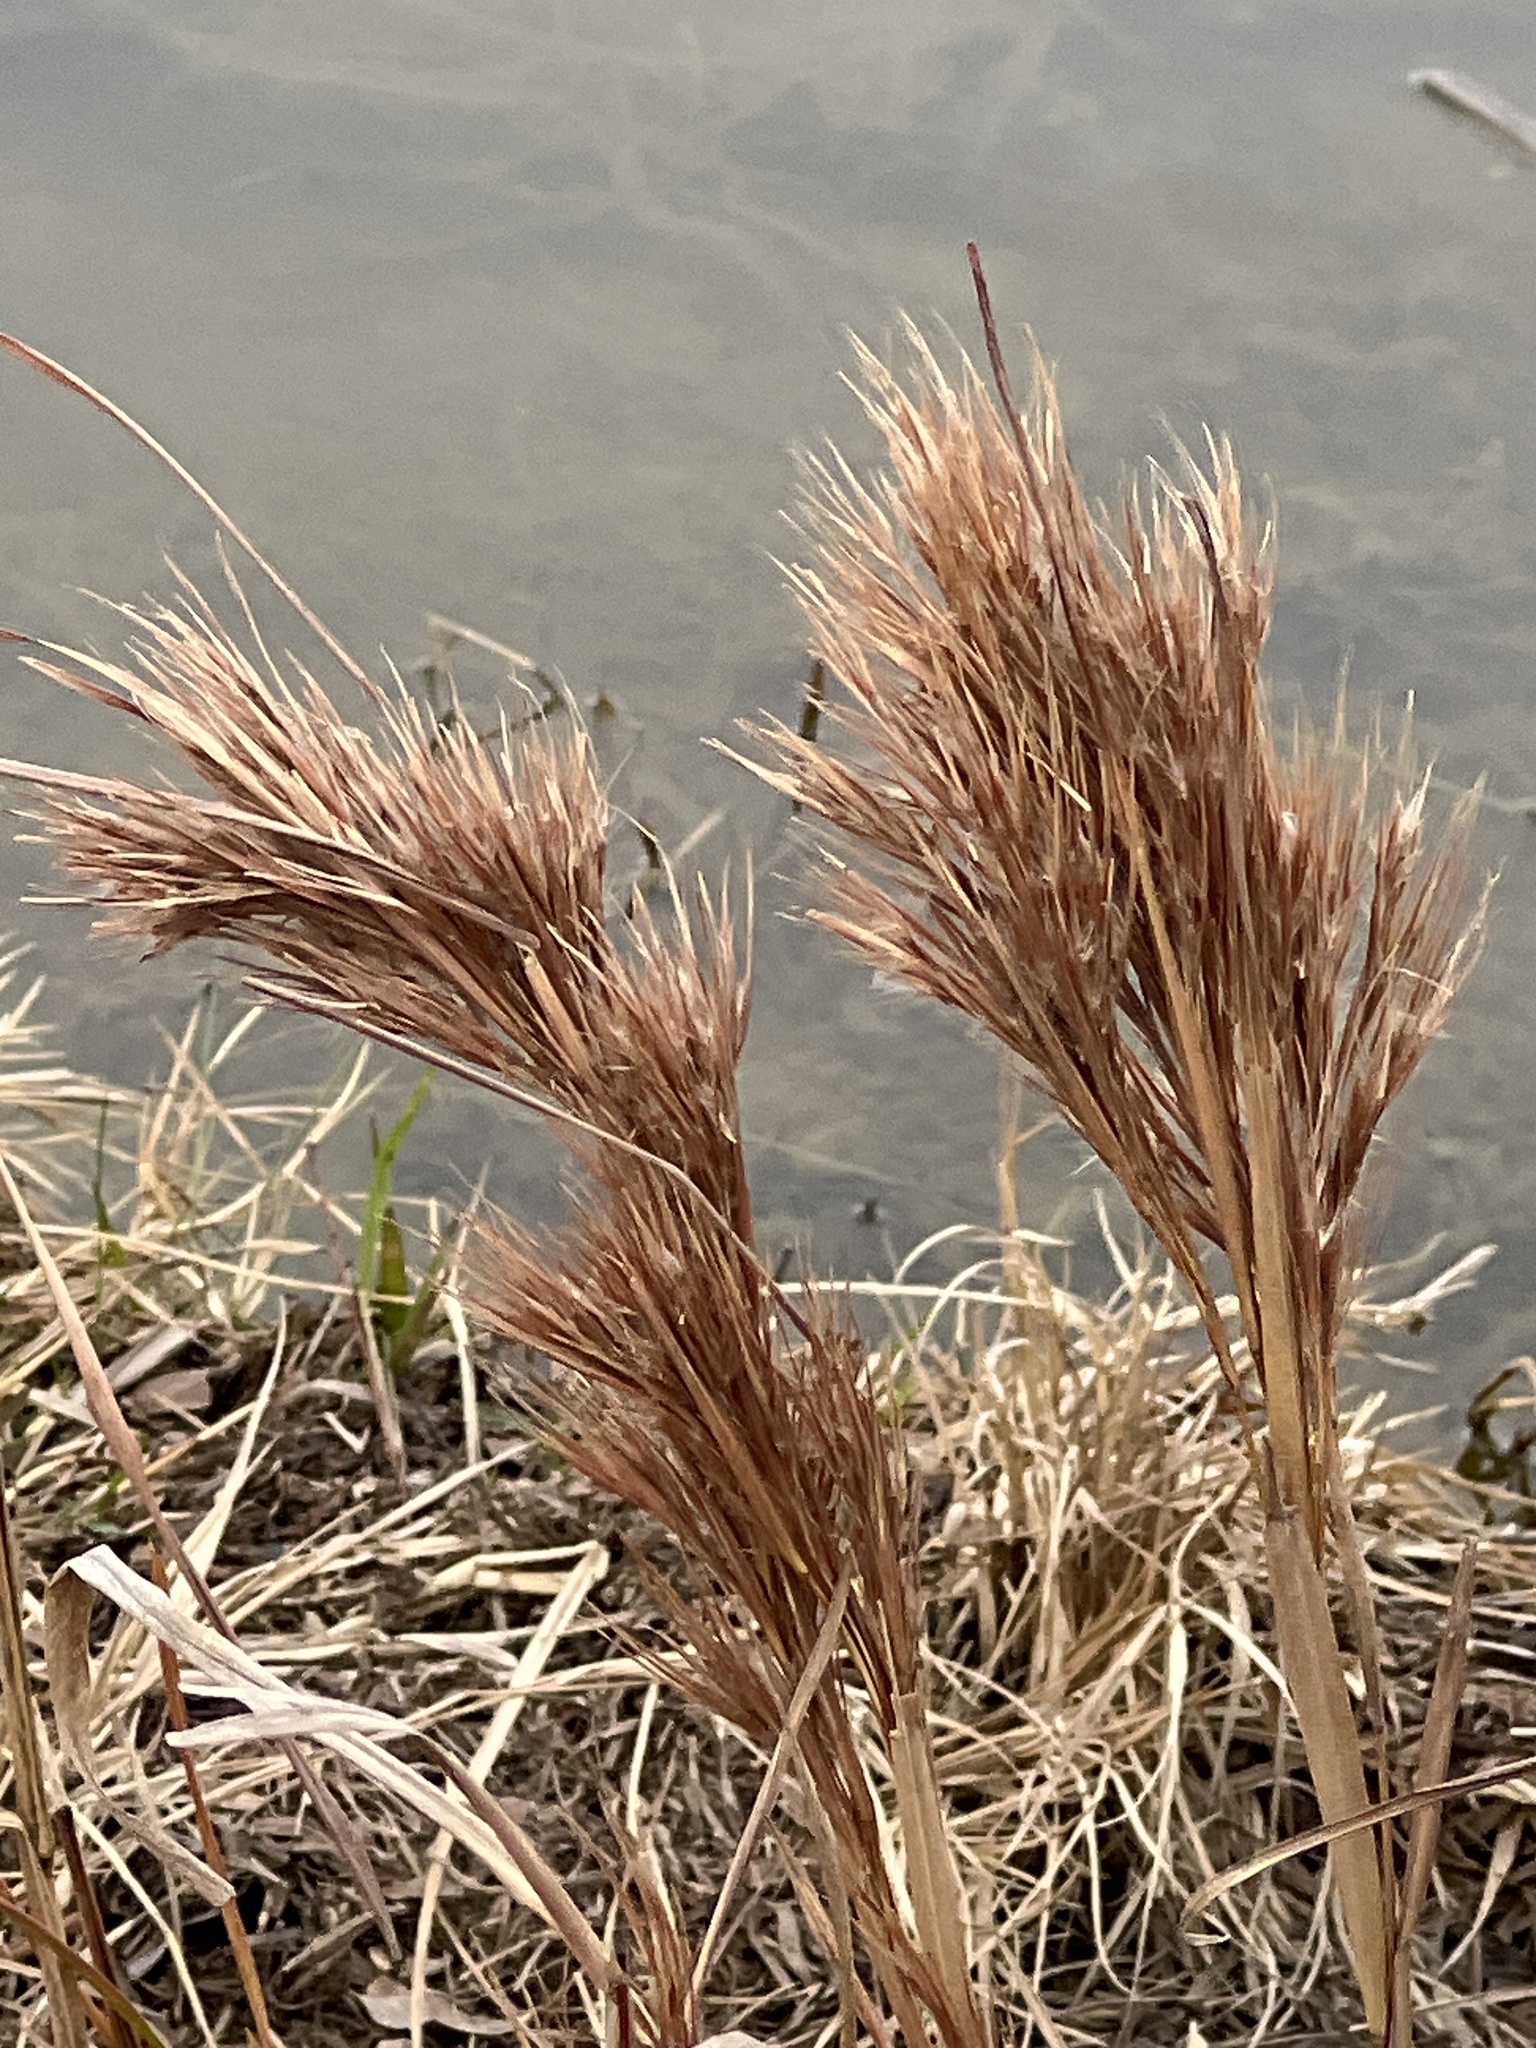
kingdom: Plantae
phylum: Tracheophyta
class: Liliopsida
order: Poales
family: Poaceae
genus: Andropogon
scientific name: Andropogon tenuispatheus
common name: Bushy bluestem
